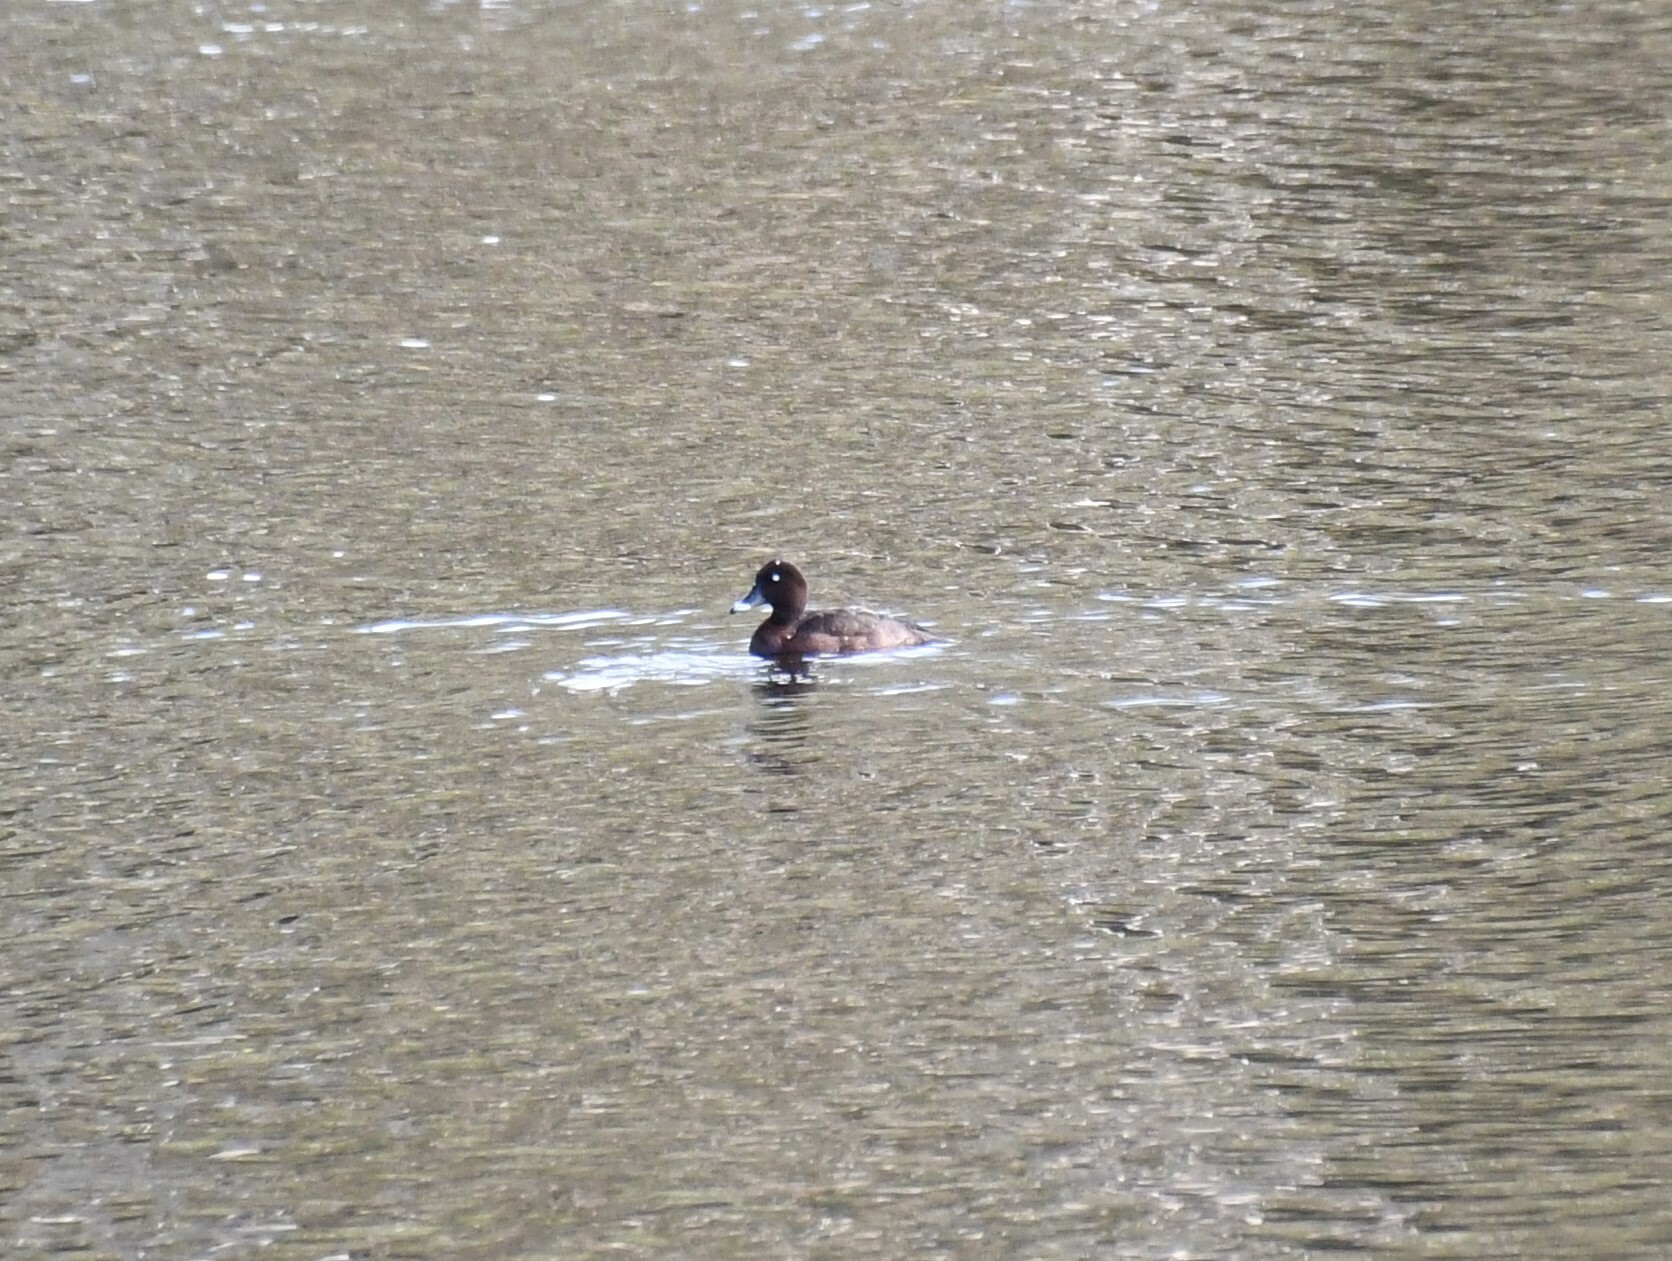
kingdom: Animalia
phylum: Chordata
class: Aves
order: Anseriformes
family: Anatidae
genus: Aythya
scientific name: Aythya australis
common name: Hardhead
